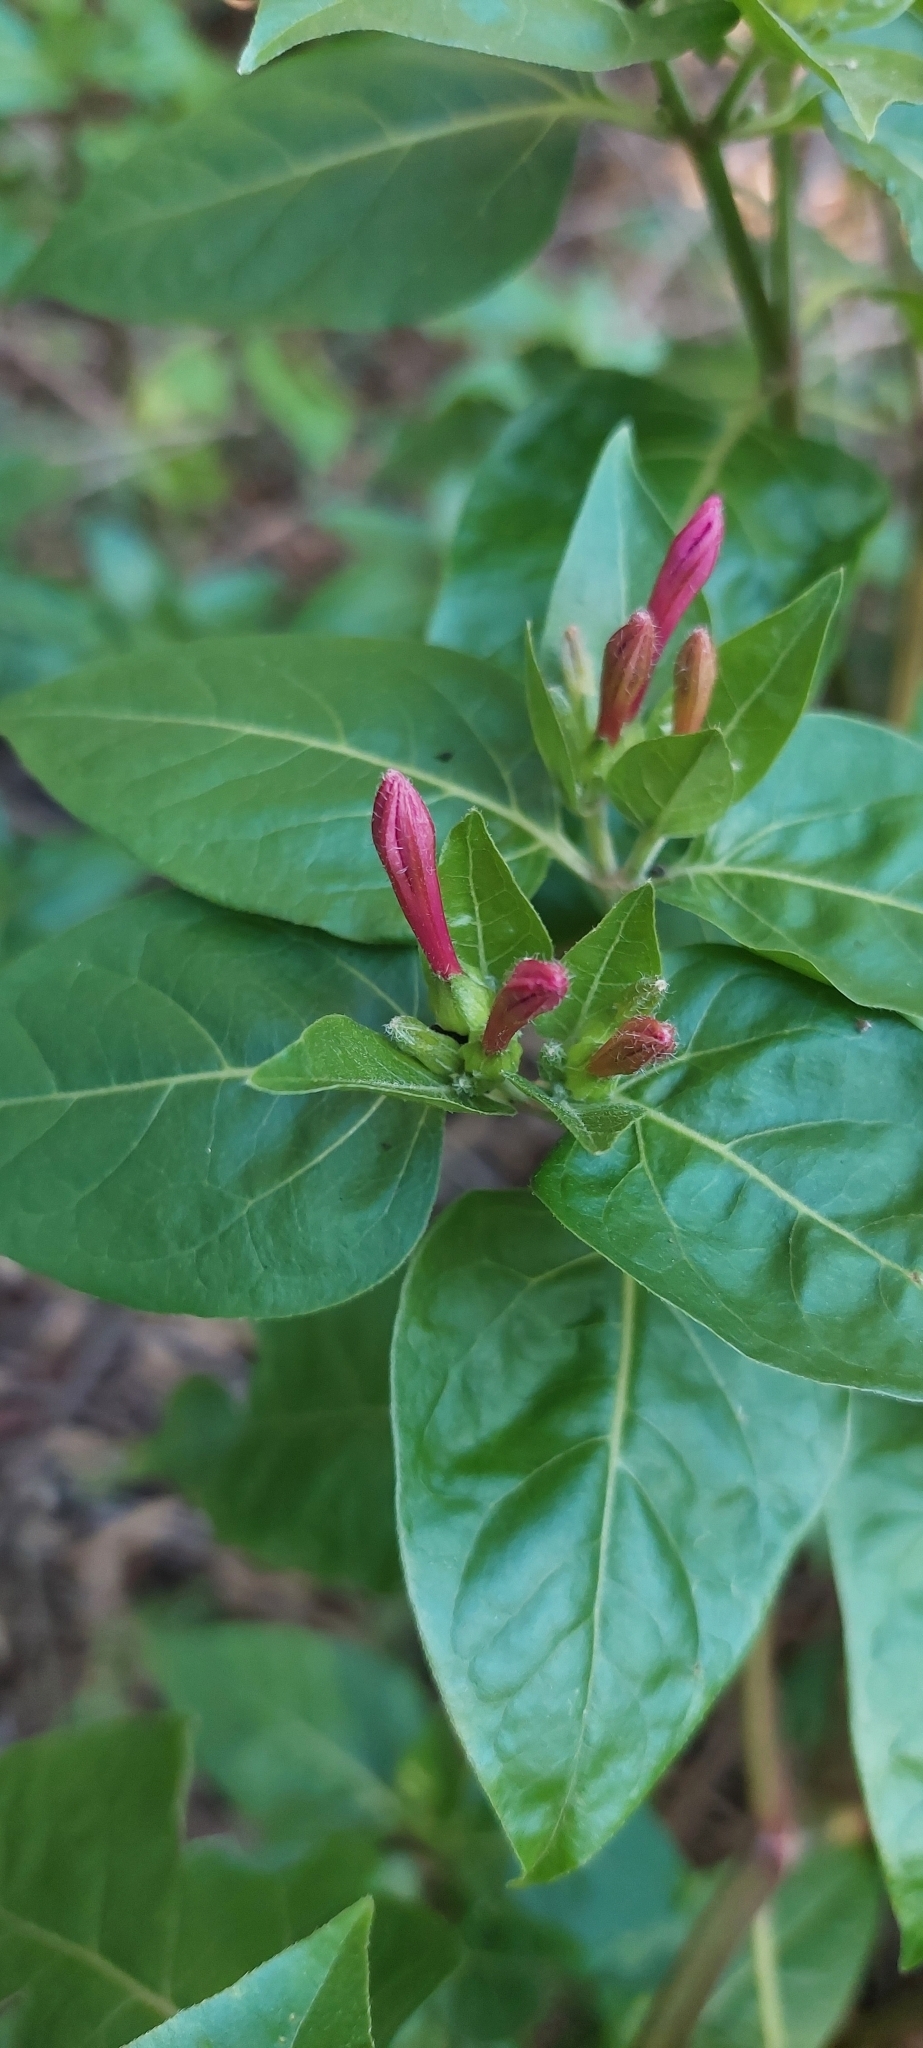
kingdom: Plantae
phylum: Tracheophyta
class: Magnoliopsida
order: Caryophyllales
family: Nyctaginaceae
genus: Mirabilis
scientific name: Mirabilis jalapa
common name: Marvel-of-peru
